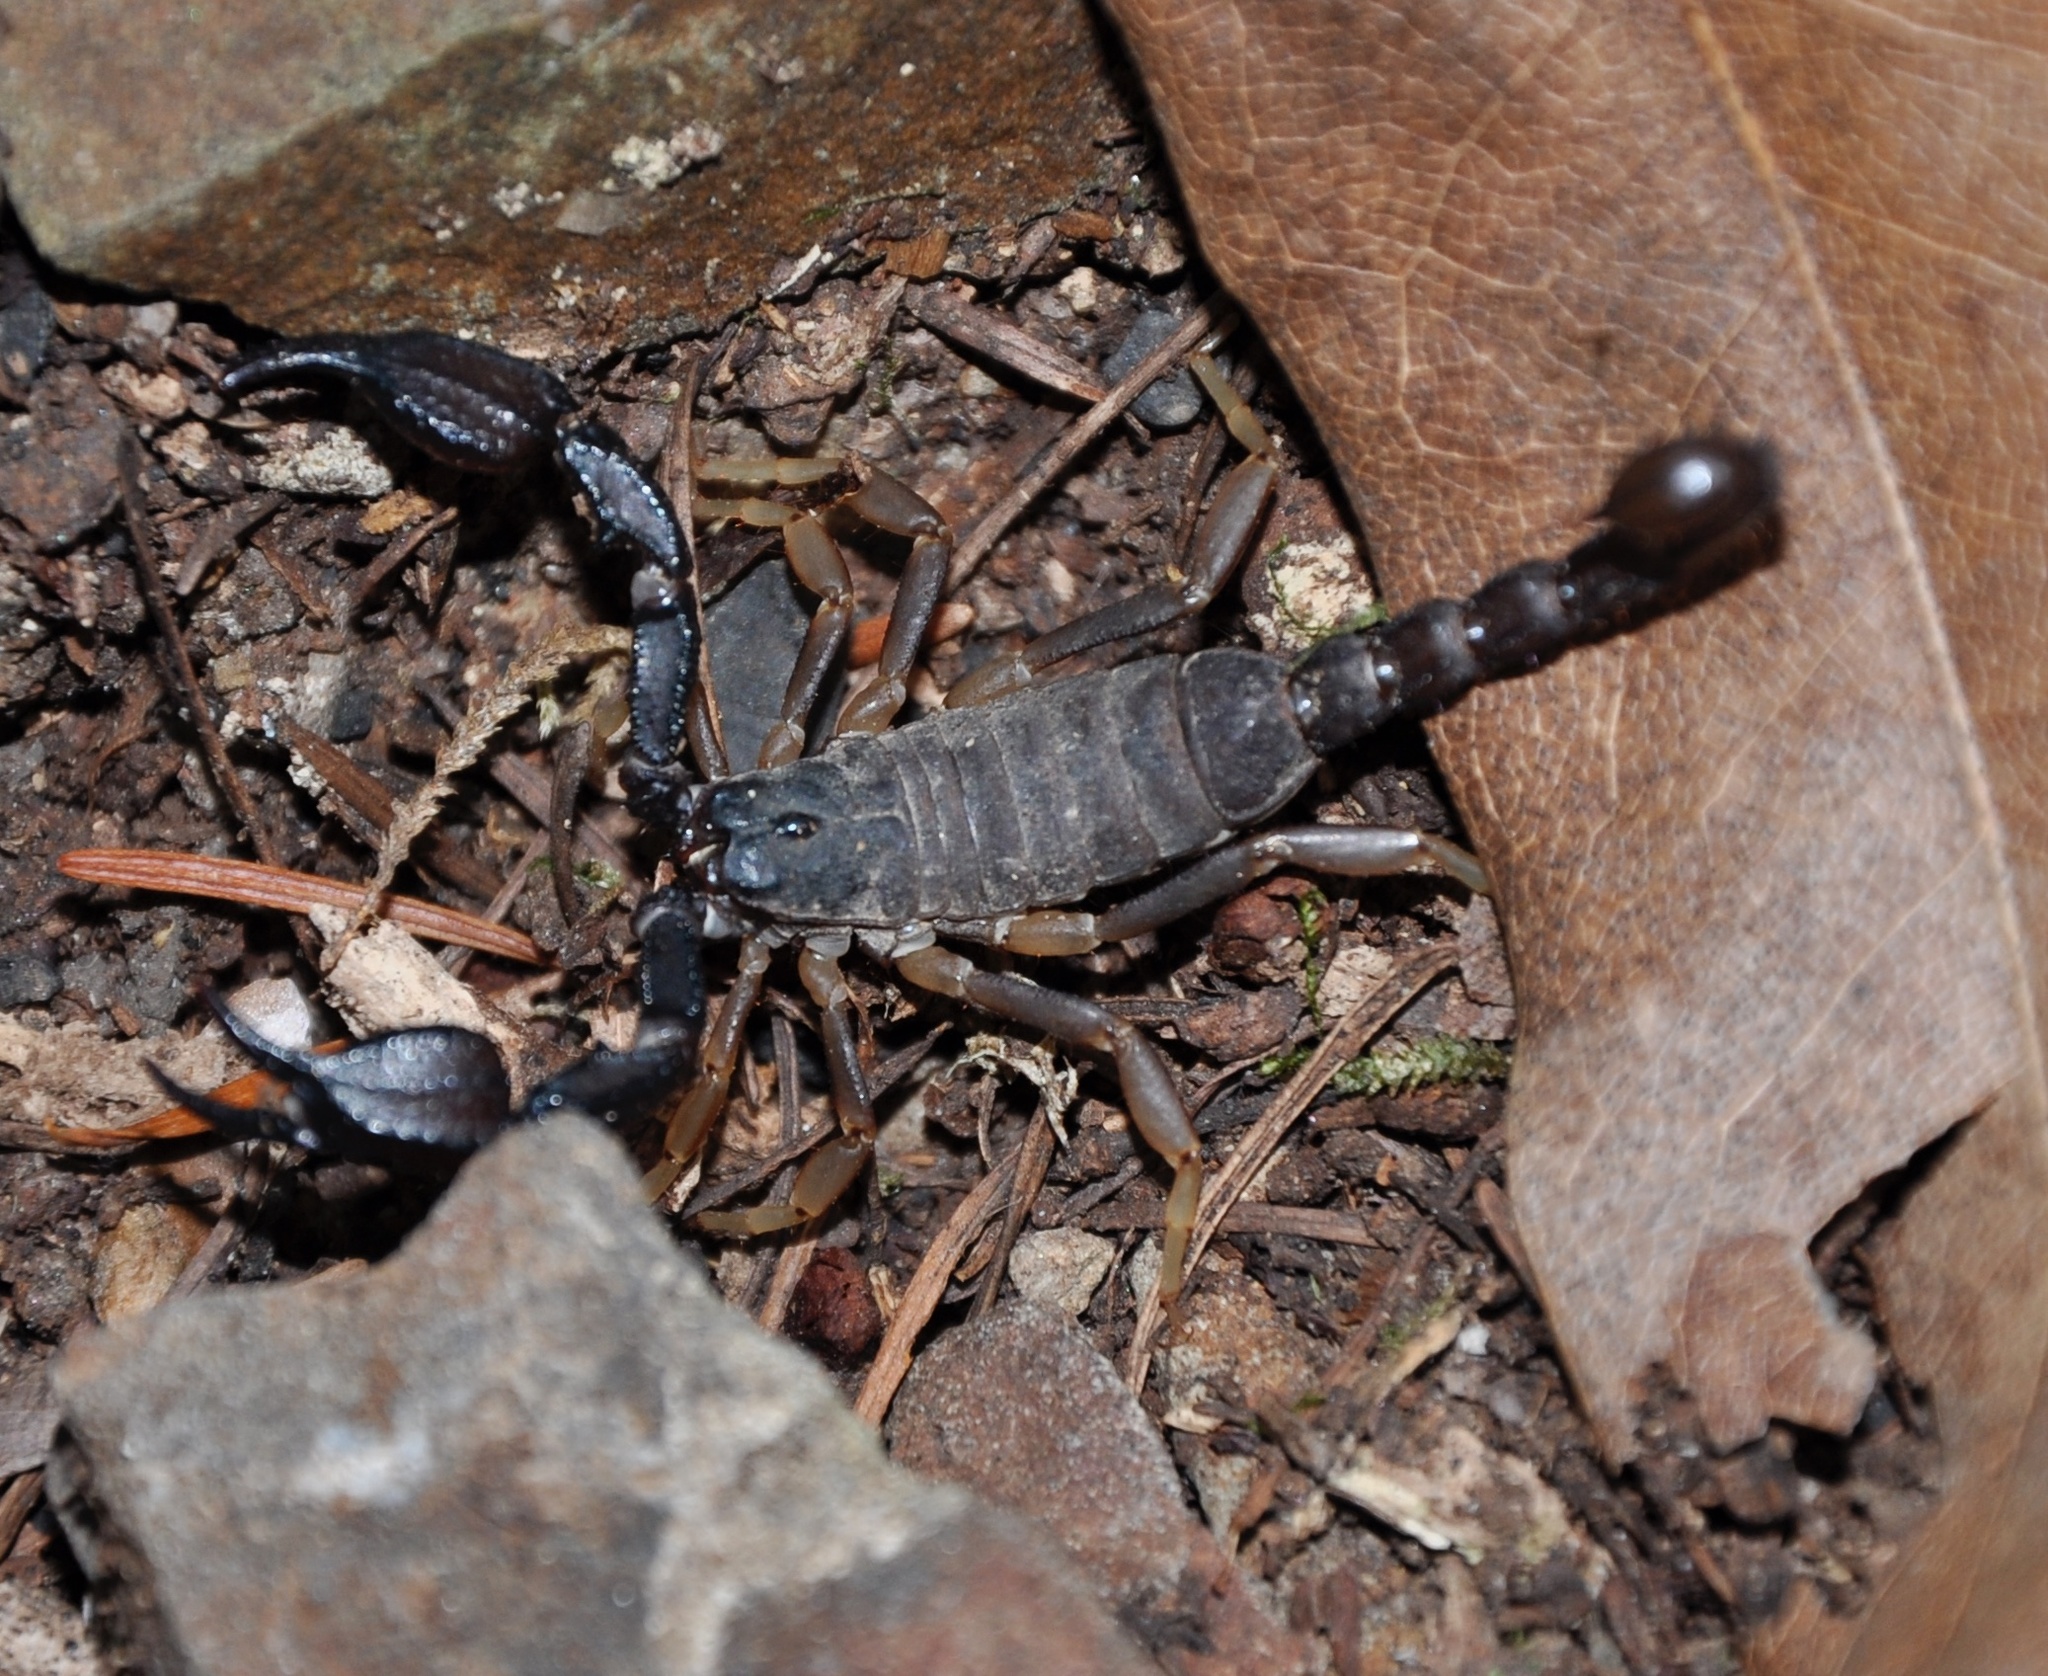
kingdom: Animalia
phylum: Arthropoda
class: Arachnida
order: Scorpiones
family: Chactidae
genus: Uroctonus
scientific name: Uroctonus mordax
